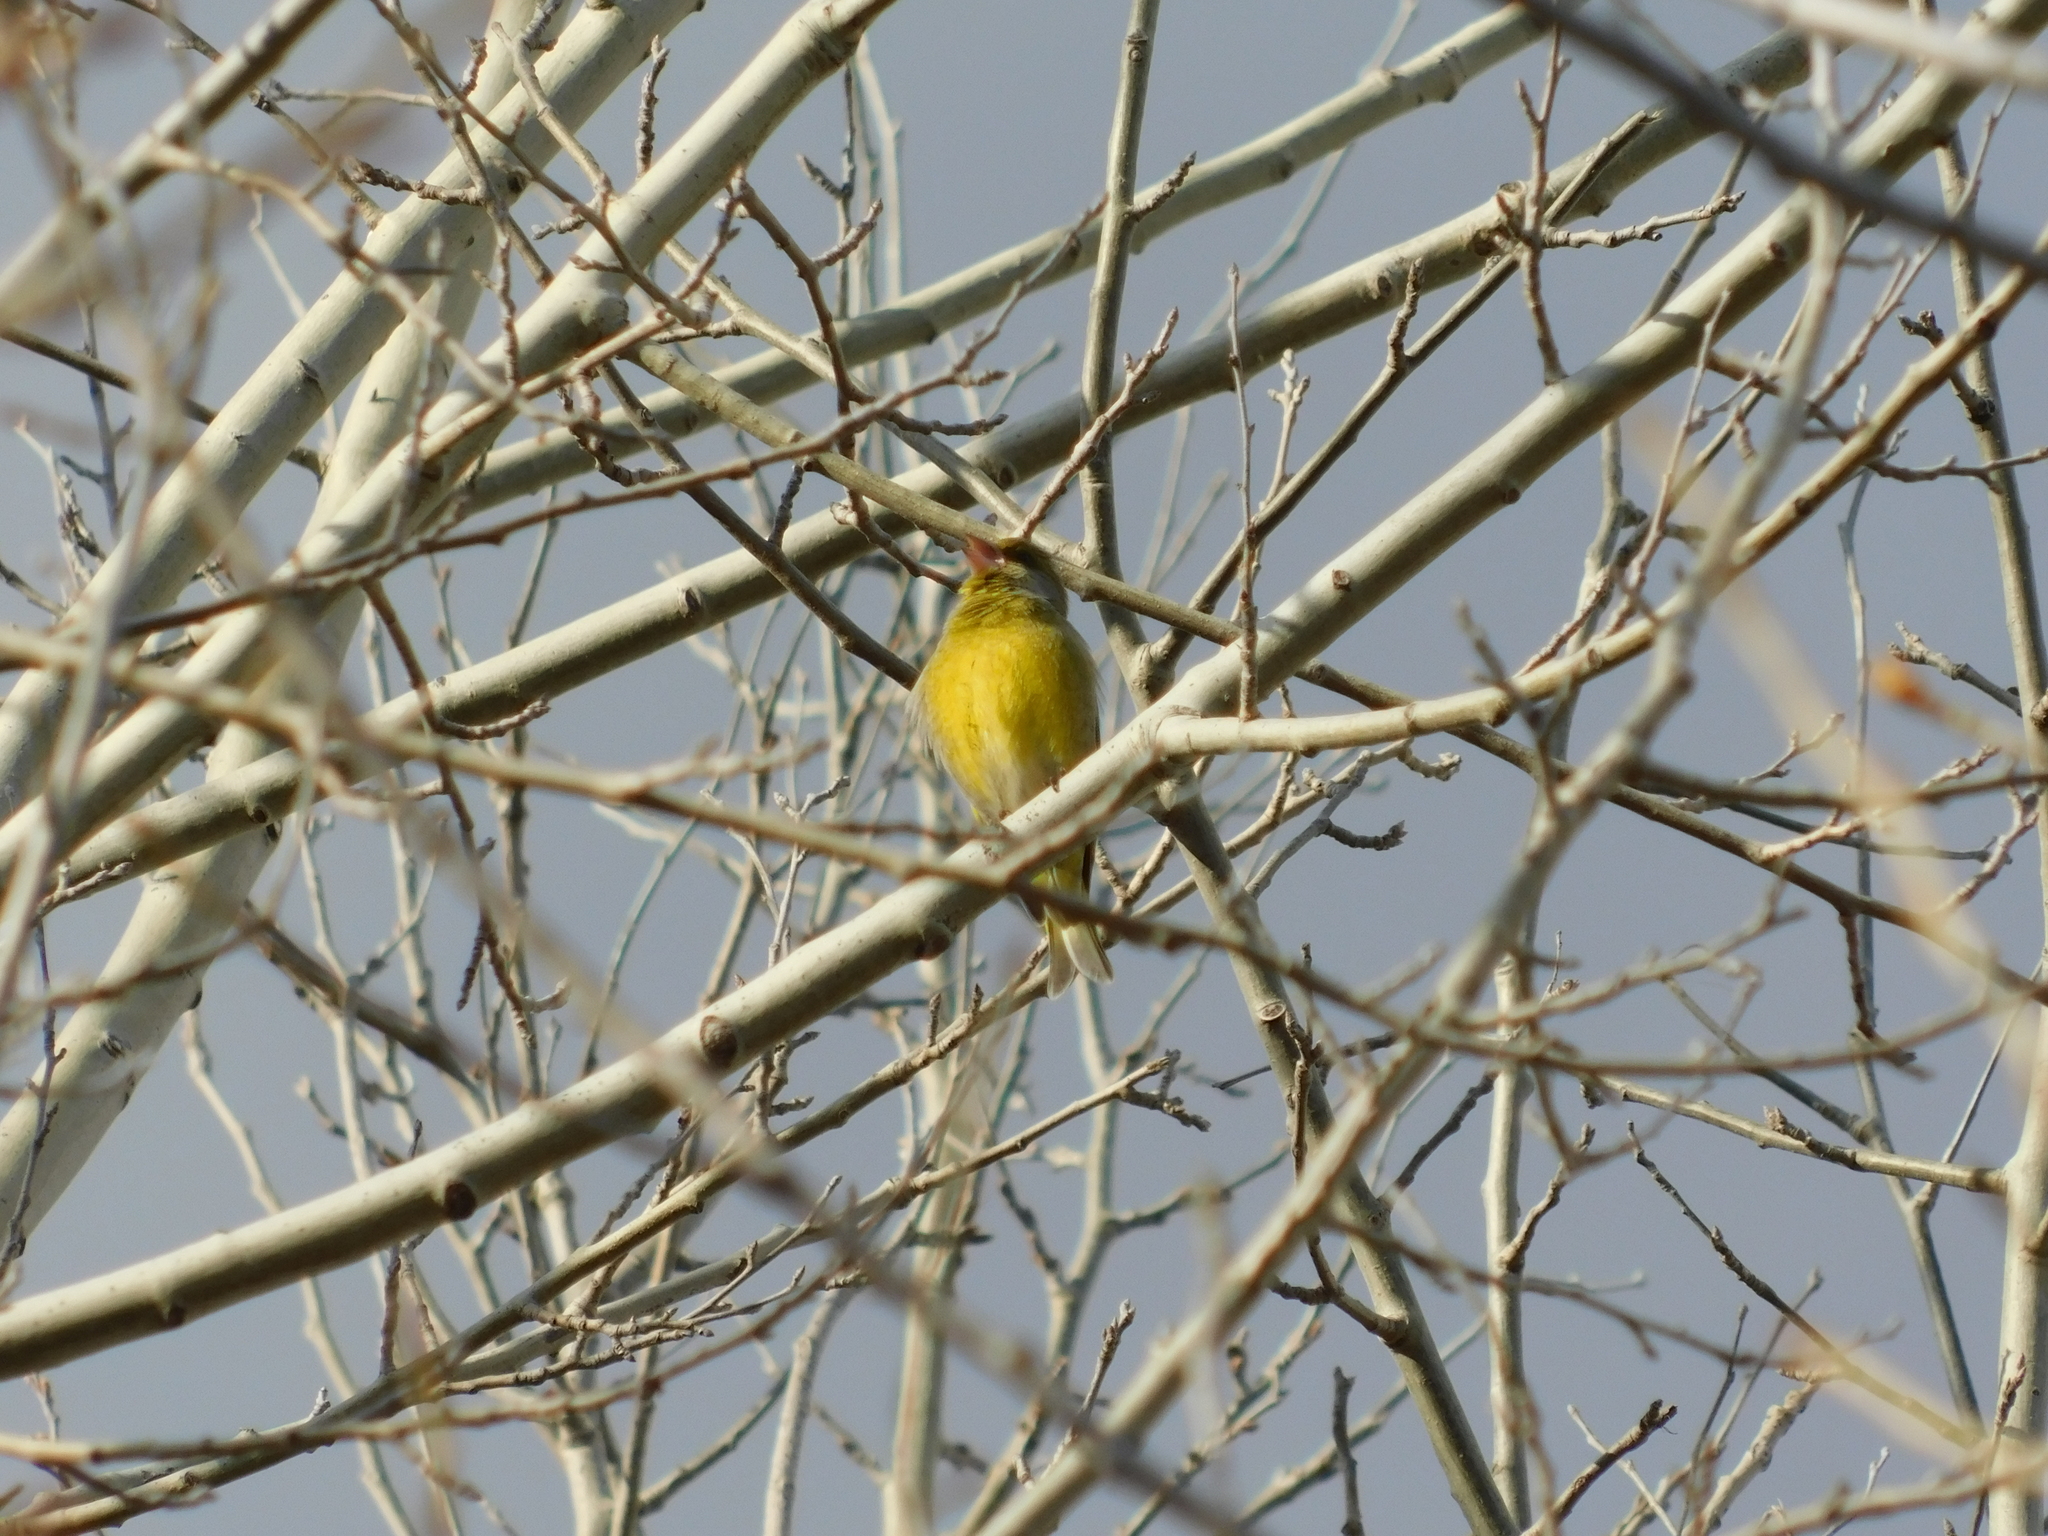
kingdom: Plantae
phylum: Tracheophyta
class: Liliopsida
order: Poales
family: Poaceae
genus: Chloris
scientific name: Chloris chloris
